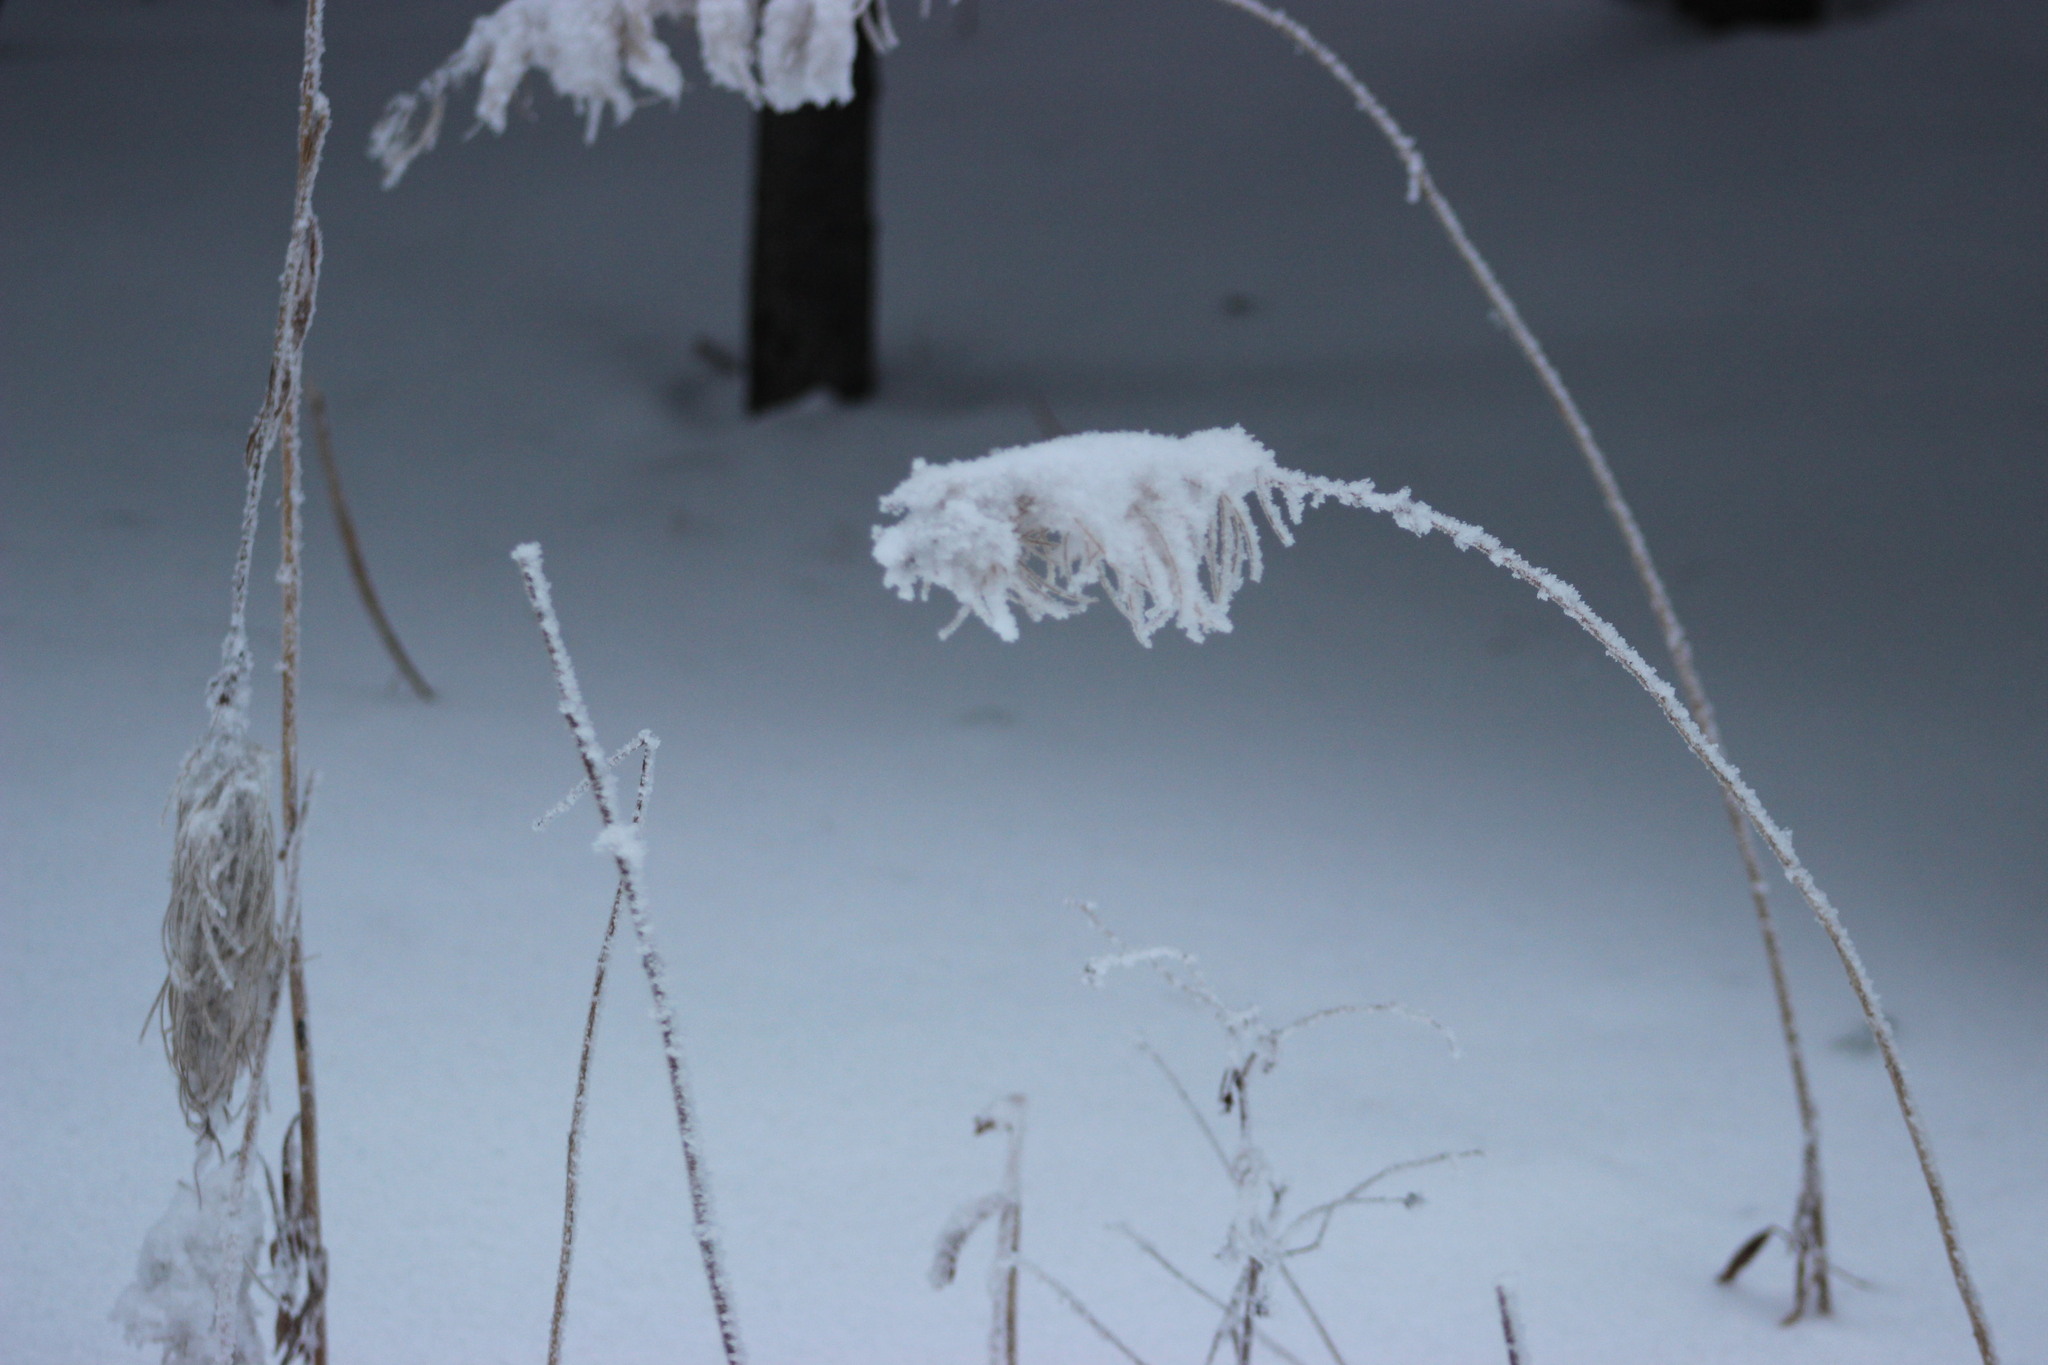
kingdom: Plantae
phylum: Tracheophyta
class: Magnoliopsida
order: Myrtales
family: Onagraceae
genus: Chamaenerion
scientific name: Chamaenerion angustifolium
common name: Fireweed
